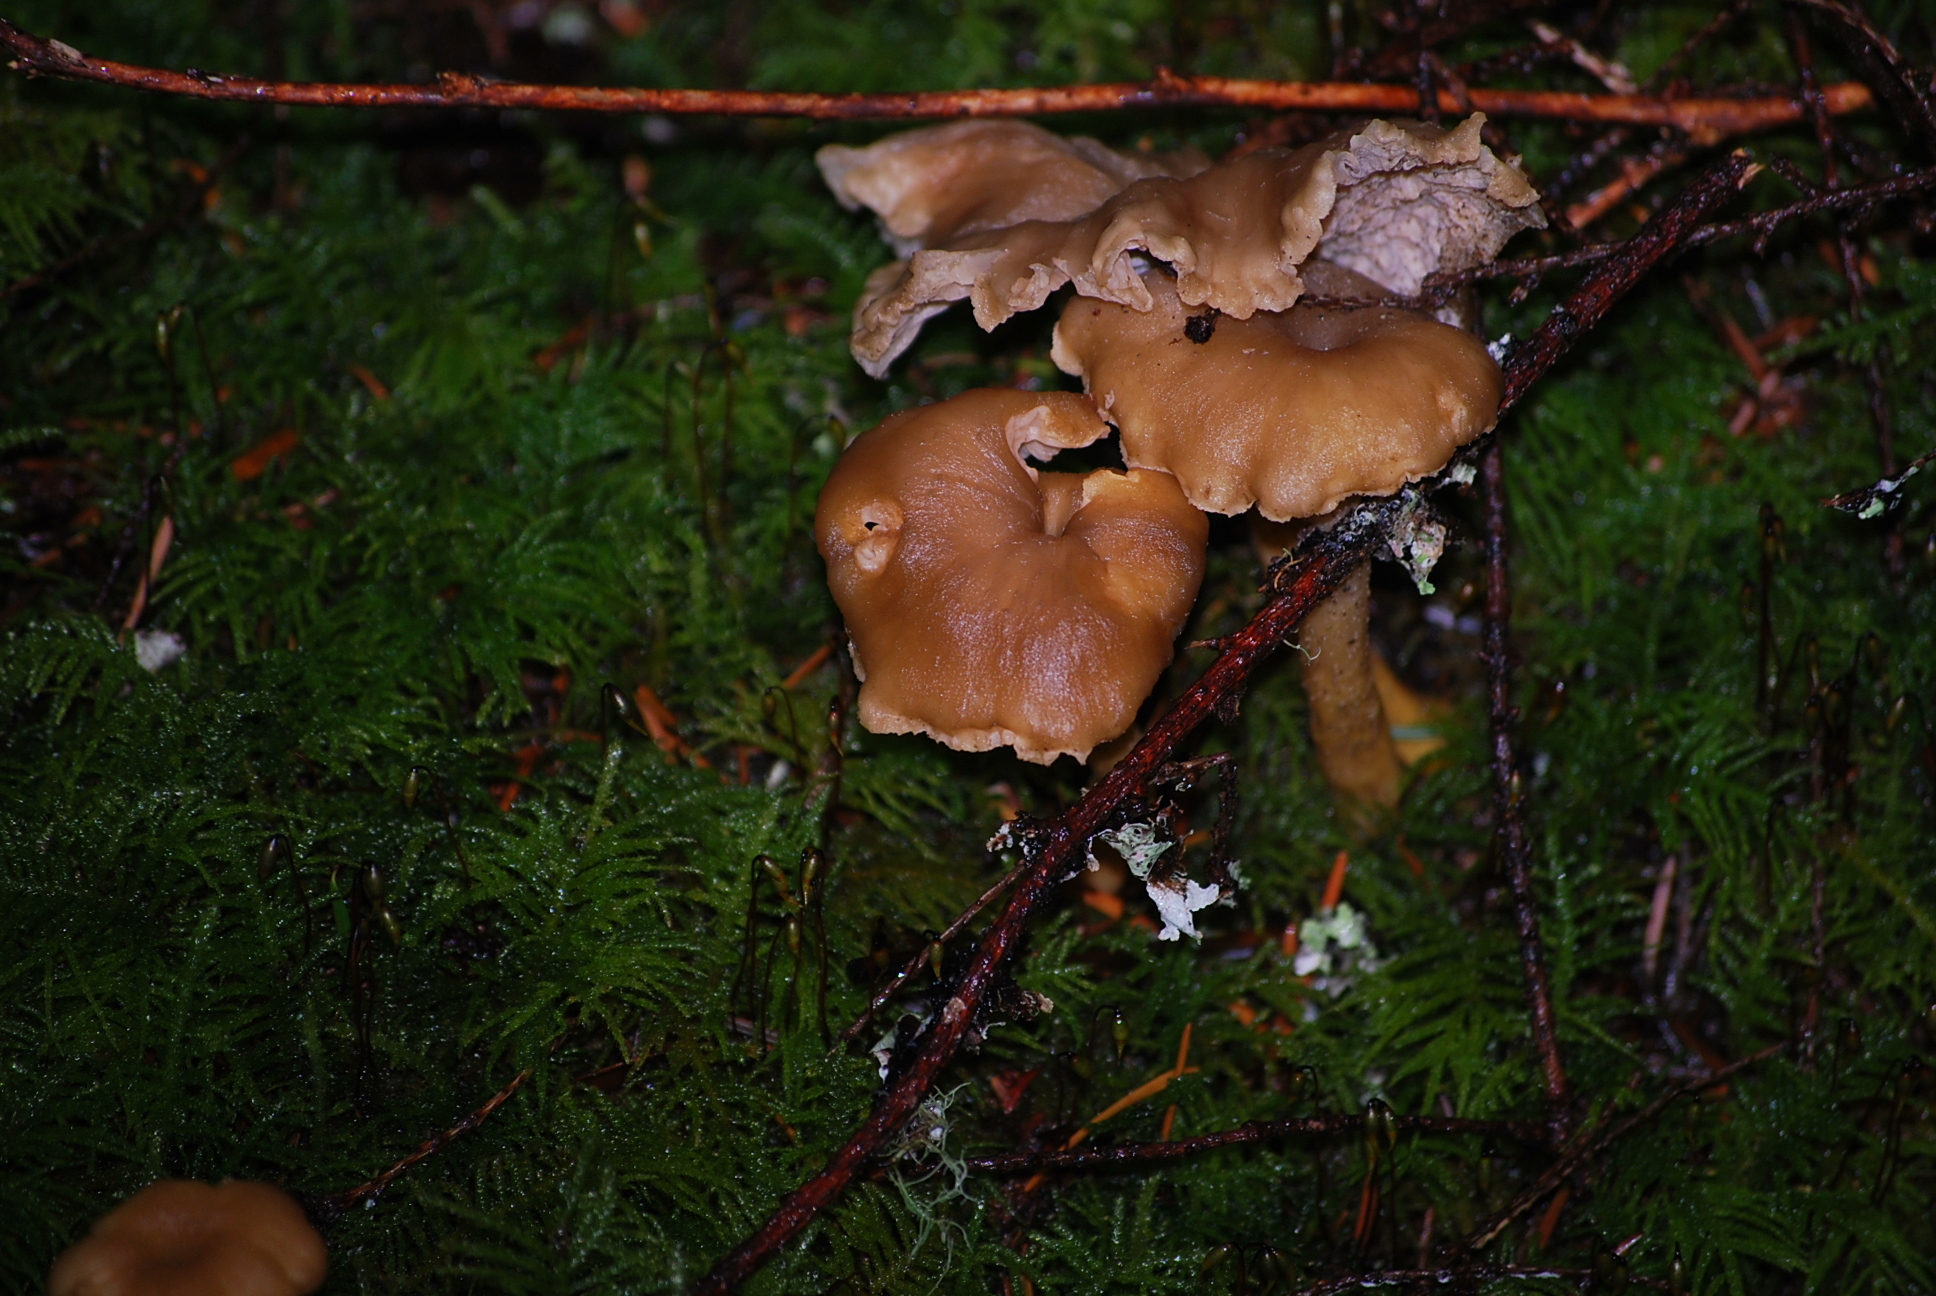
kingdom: Fungi
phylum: Basidiomycota
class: Agaricomycetes
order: Cantharellales
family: Hydnaceae
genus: Craterellus
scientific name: Craterellus tubaeformis
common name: Yellowfoot
